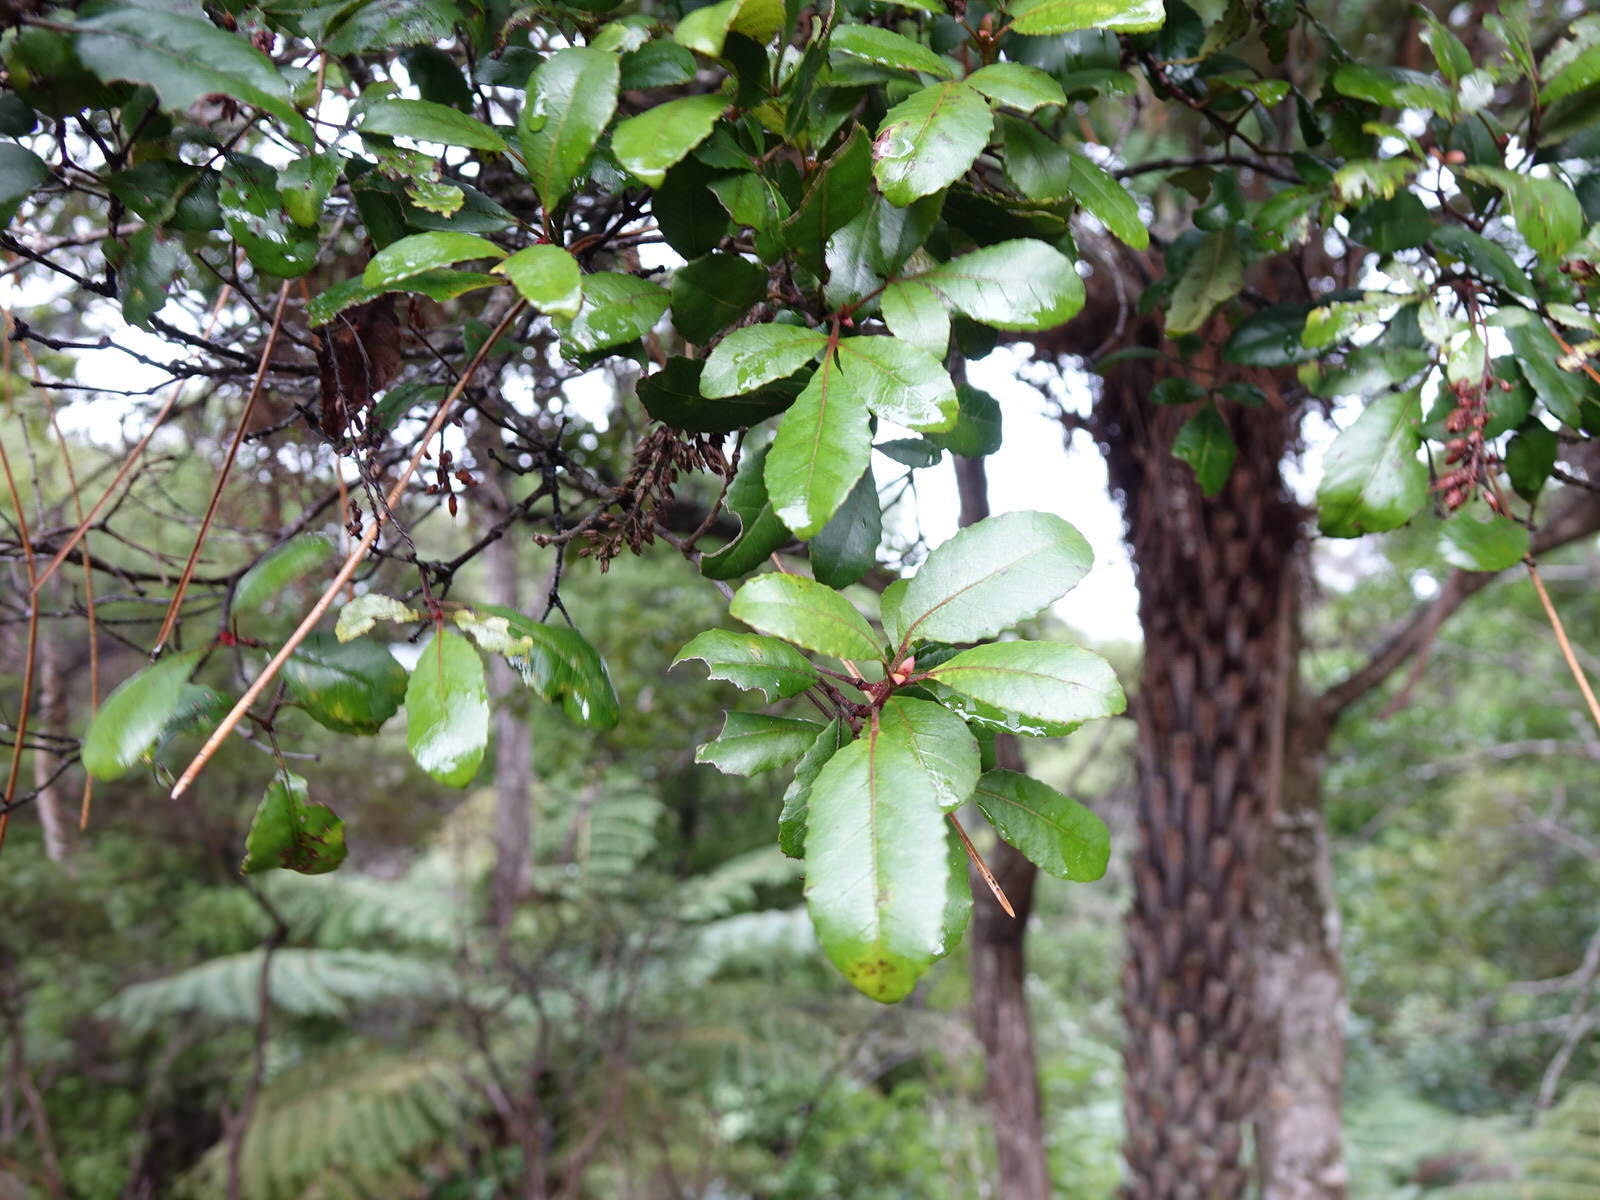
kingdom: Plantae
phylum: Tracheophyta
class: Magnoliopsida
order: Oxalidales
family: Cunoniaceae
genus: Pterophylla
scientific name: Pterophylla sylvicola
